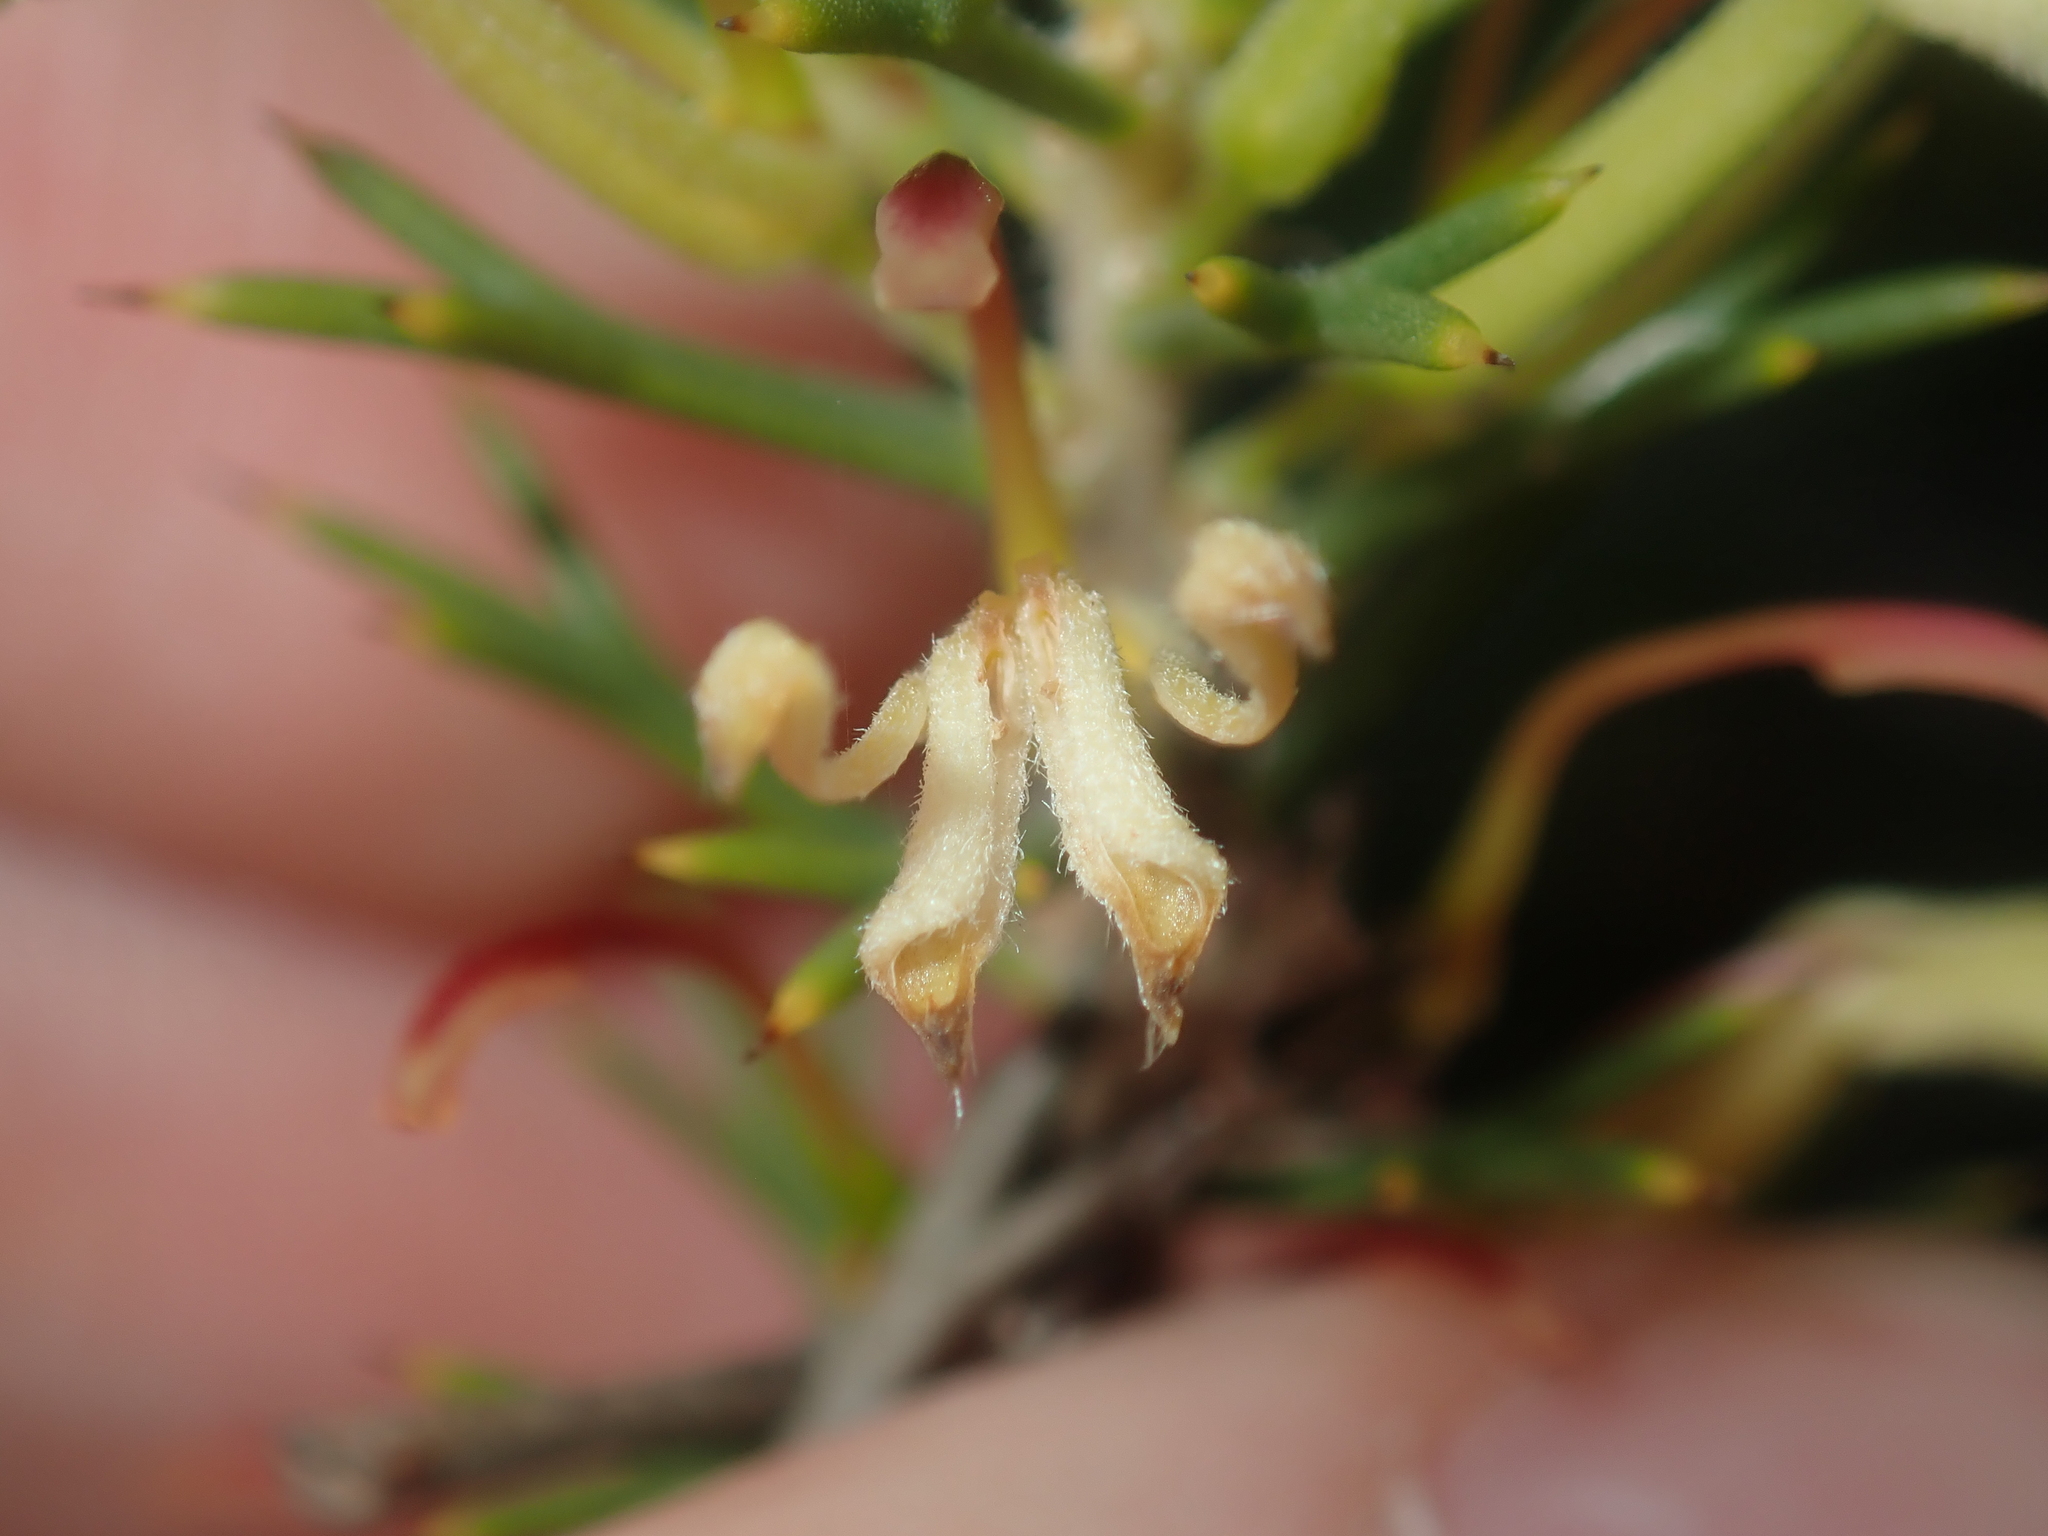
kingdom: Plantae
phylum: Tracheophyta
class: Magnoliopsida
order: Proteales
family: Proteaceae
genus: Hakea
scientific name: Hakea longiflora
